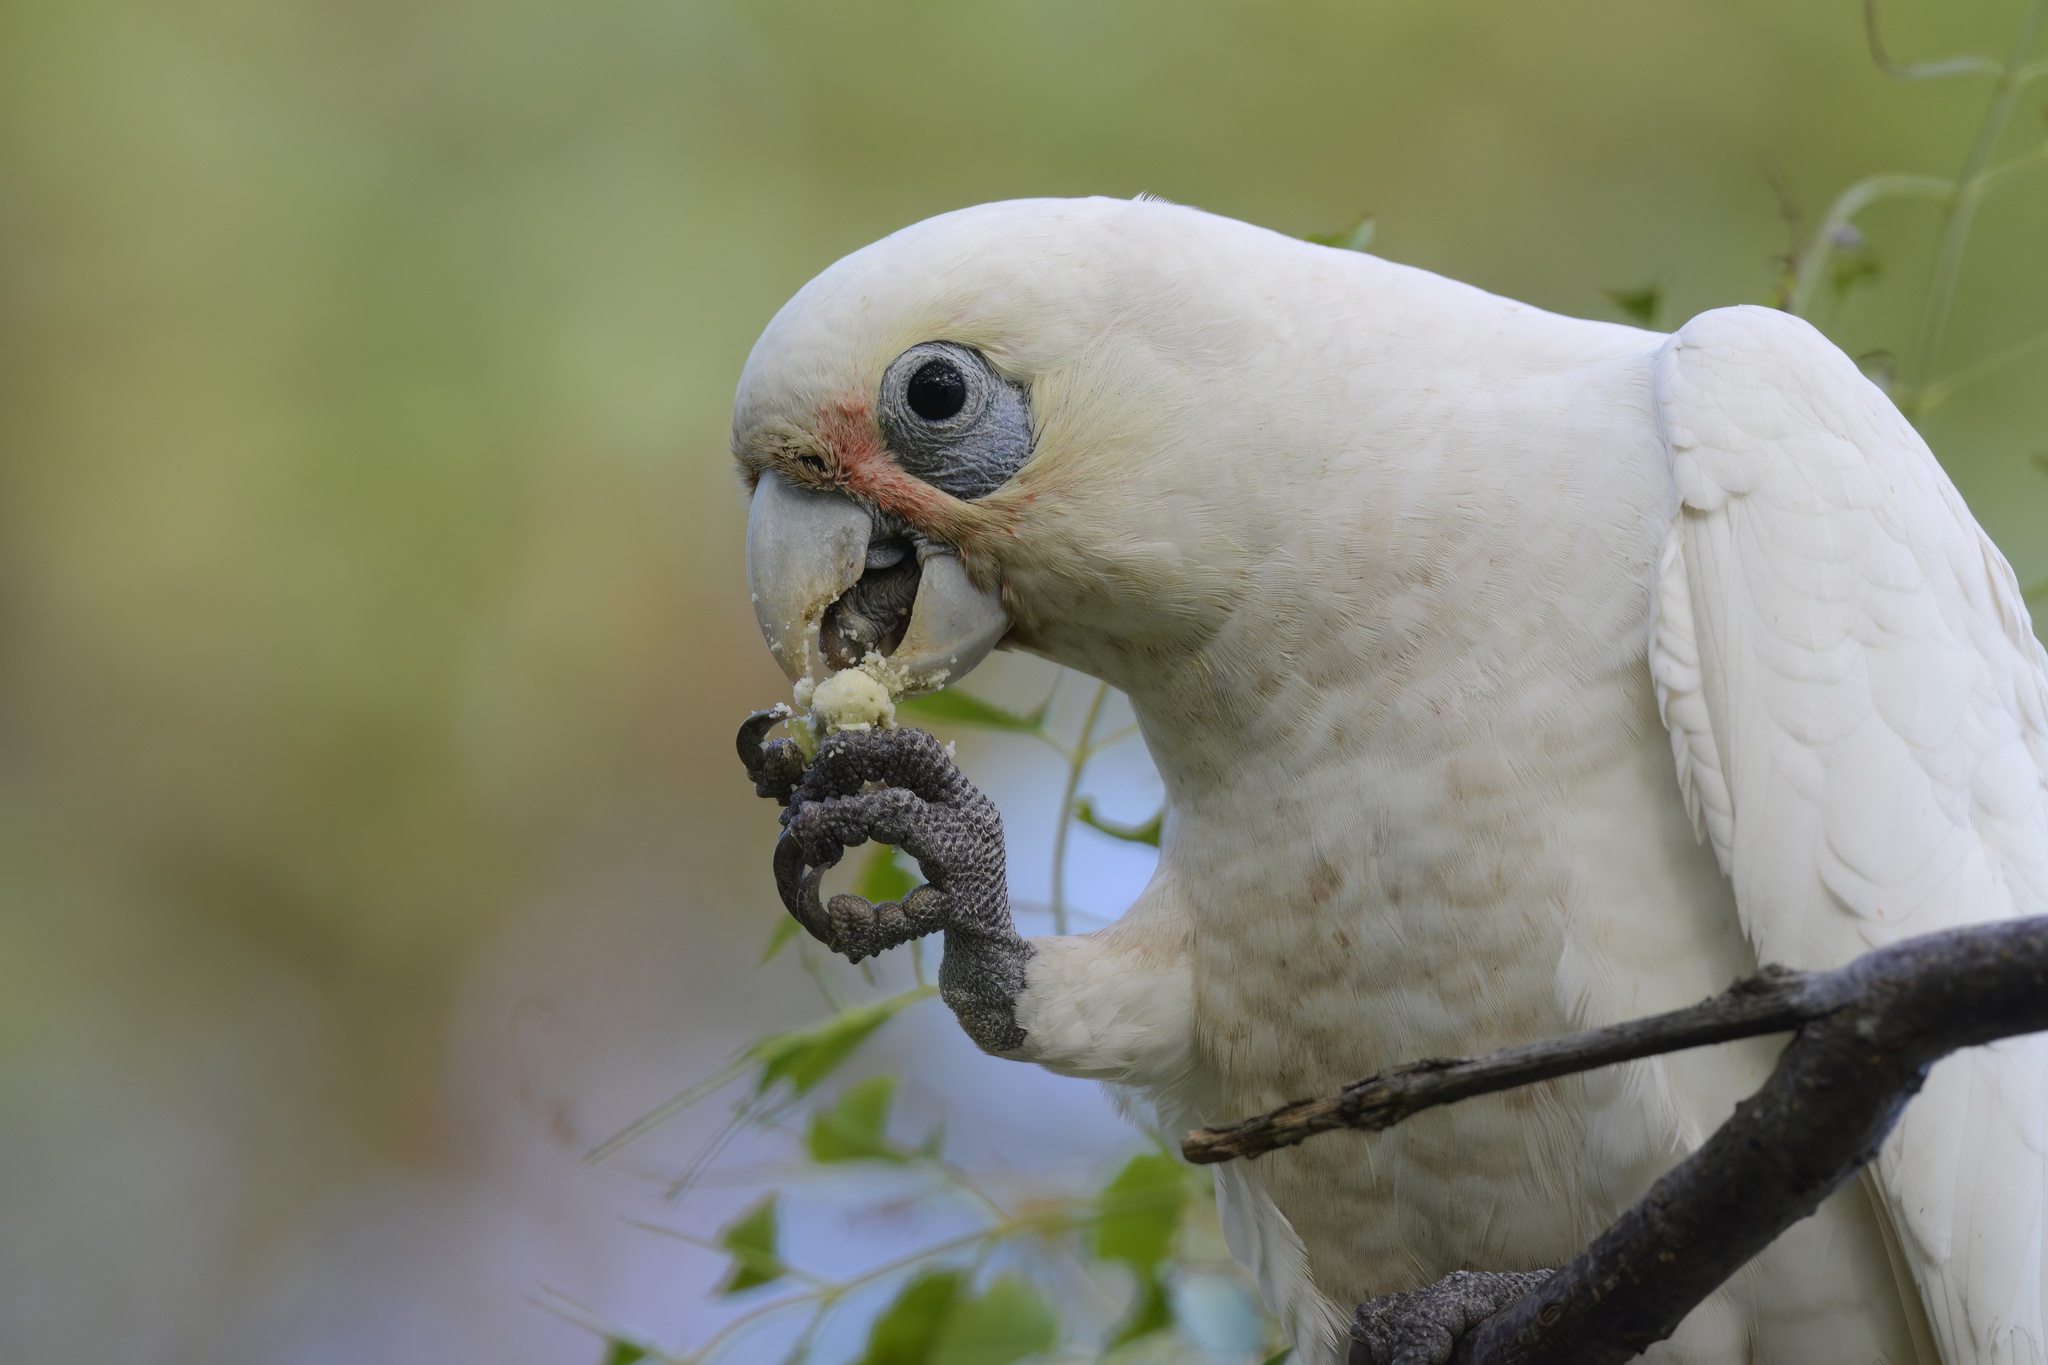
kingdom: Animalia
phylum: Chordata
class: Aves
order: Psittaciformes
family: Psittacidae
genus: Cacatua
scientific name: Cacatua sanguinea
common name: Little corella
